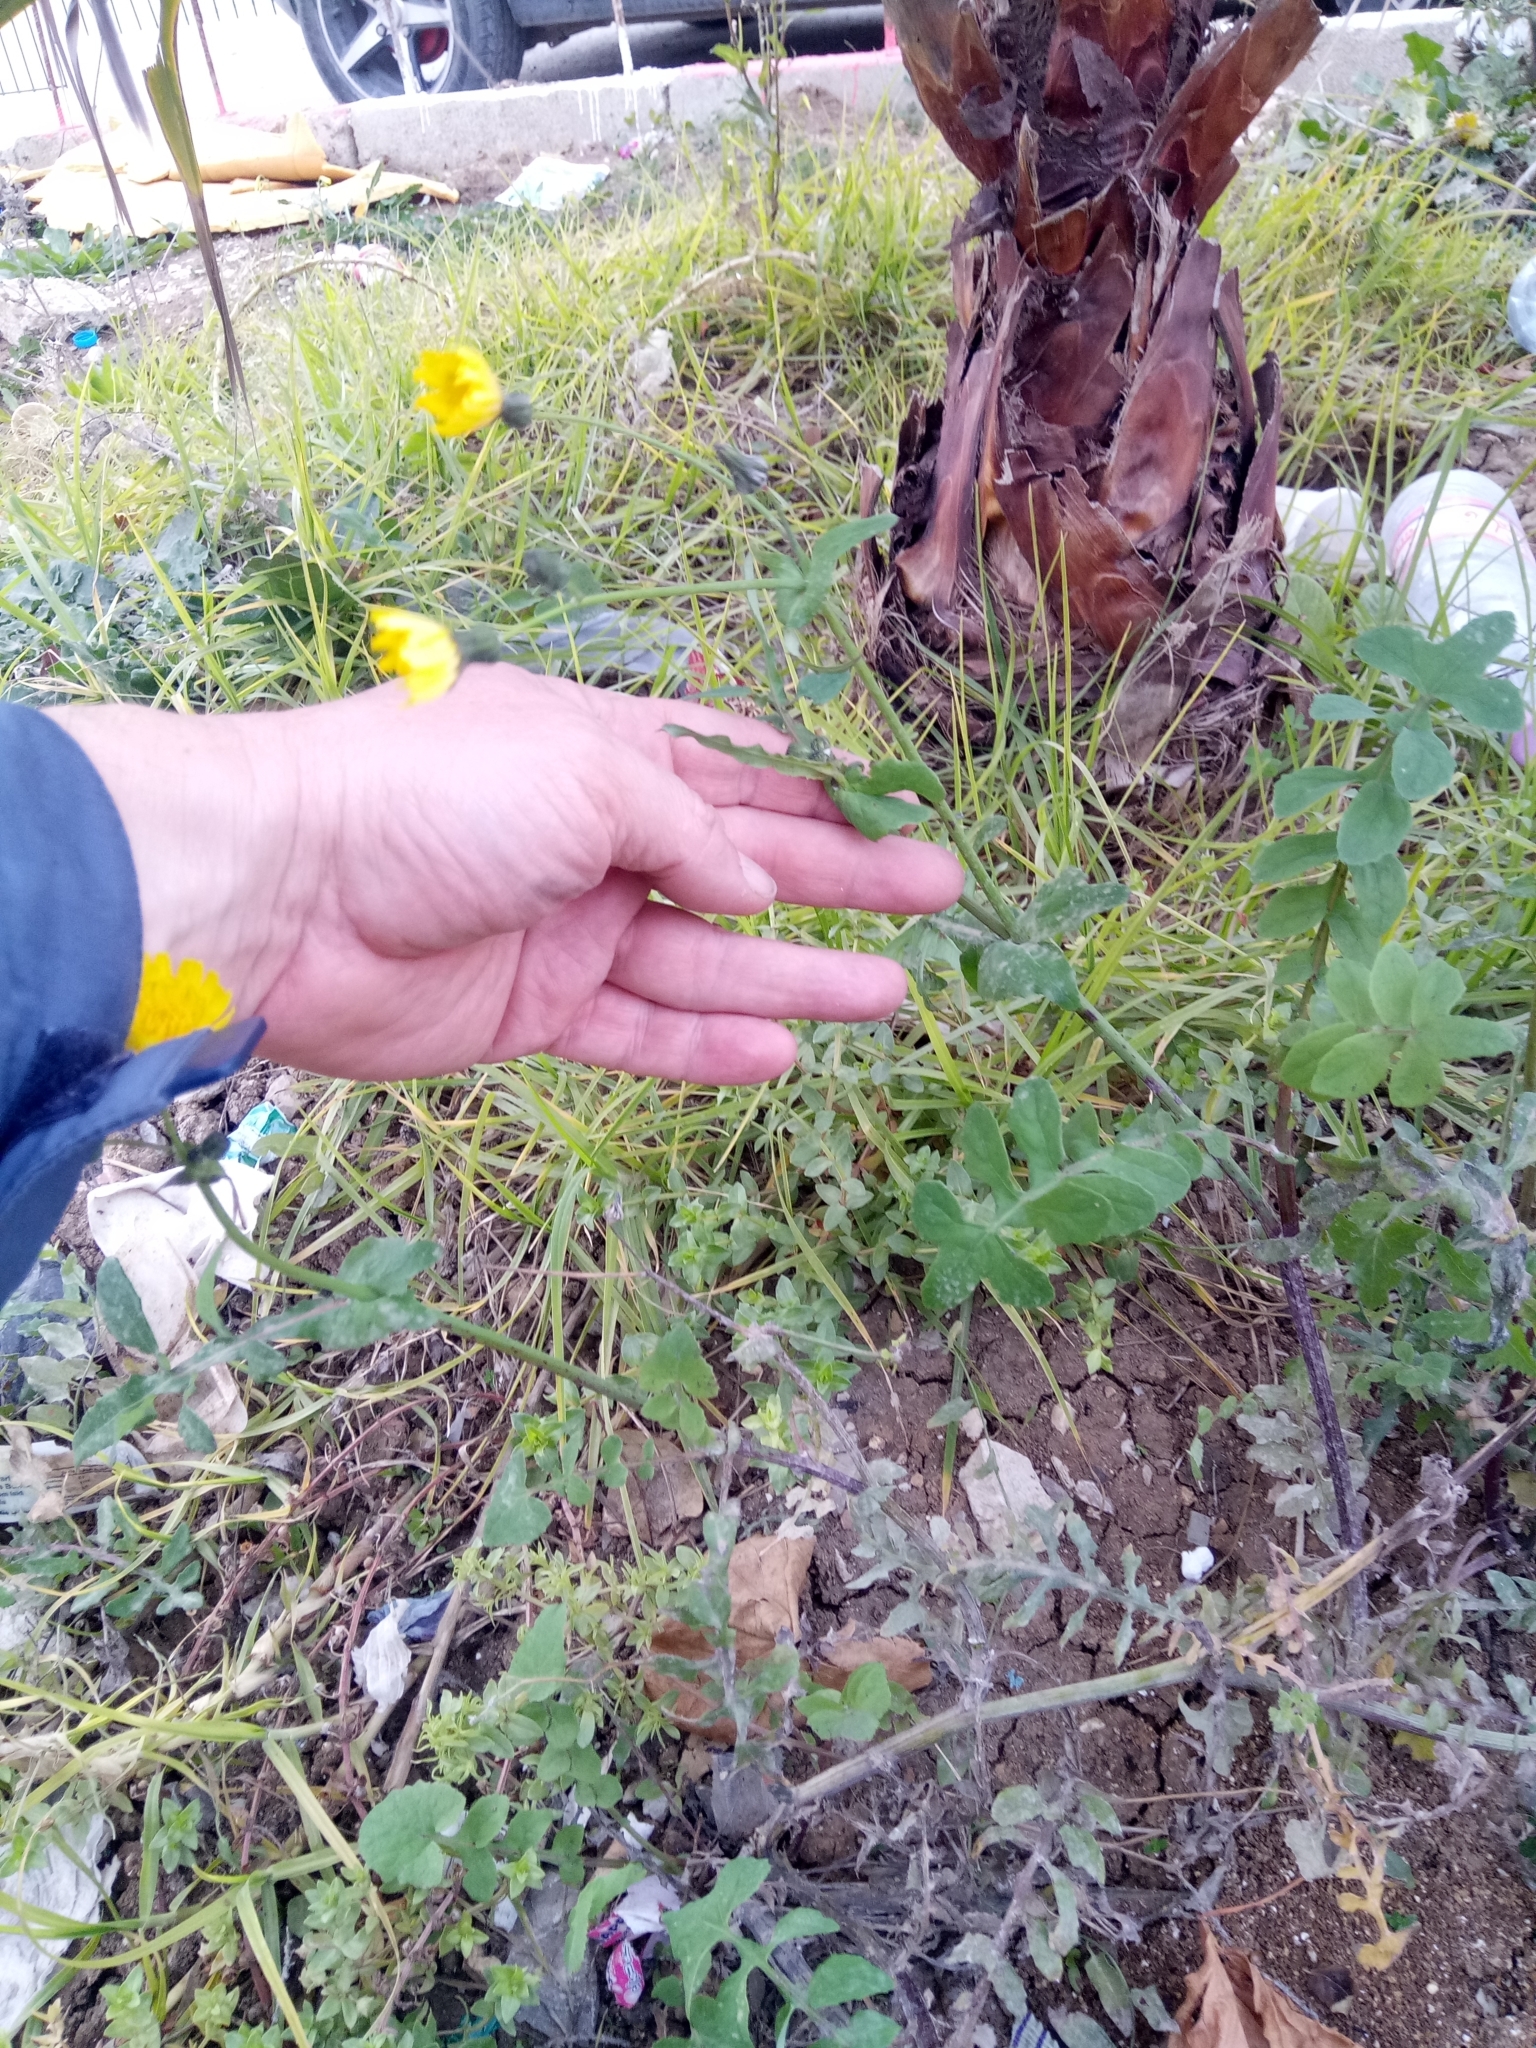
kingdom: Plantae
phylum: Tracheophyta
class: Magnoliopsida
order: Asterales
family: Asteraceae
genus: Sonchus
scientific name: Sonchus tenerrimus
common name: Clammy sowthistle
